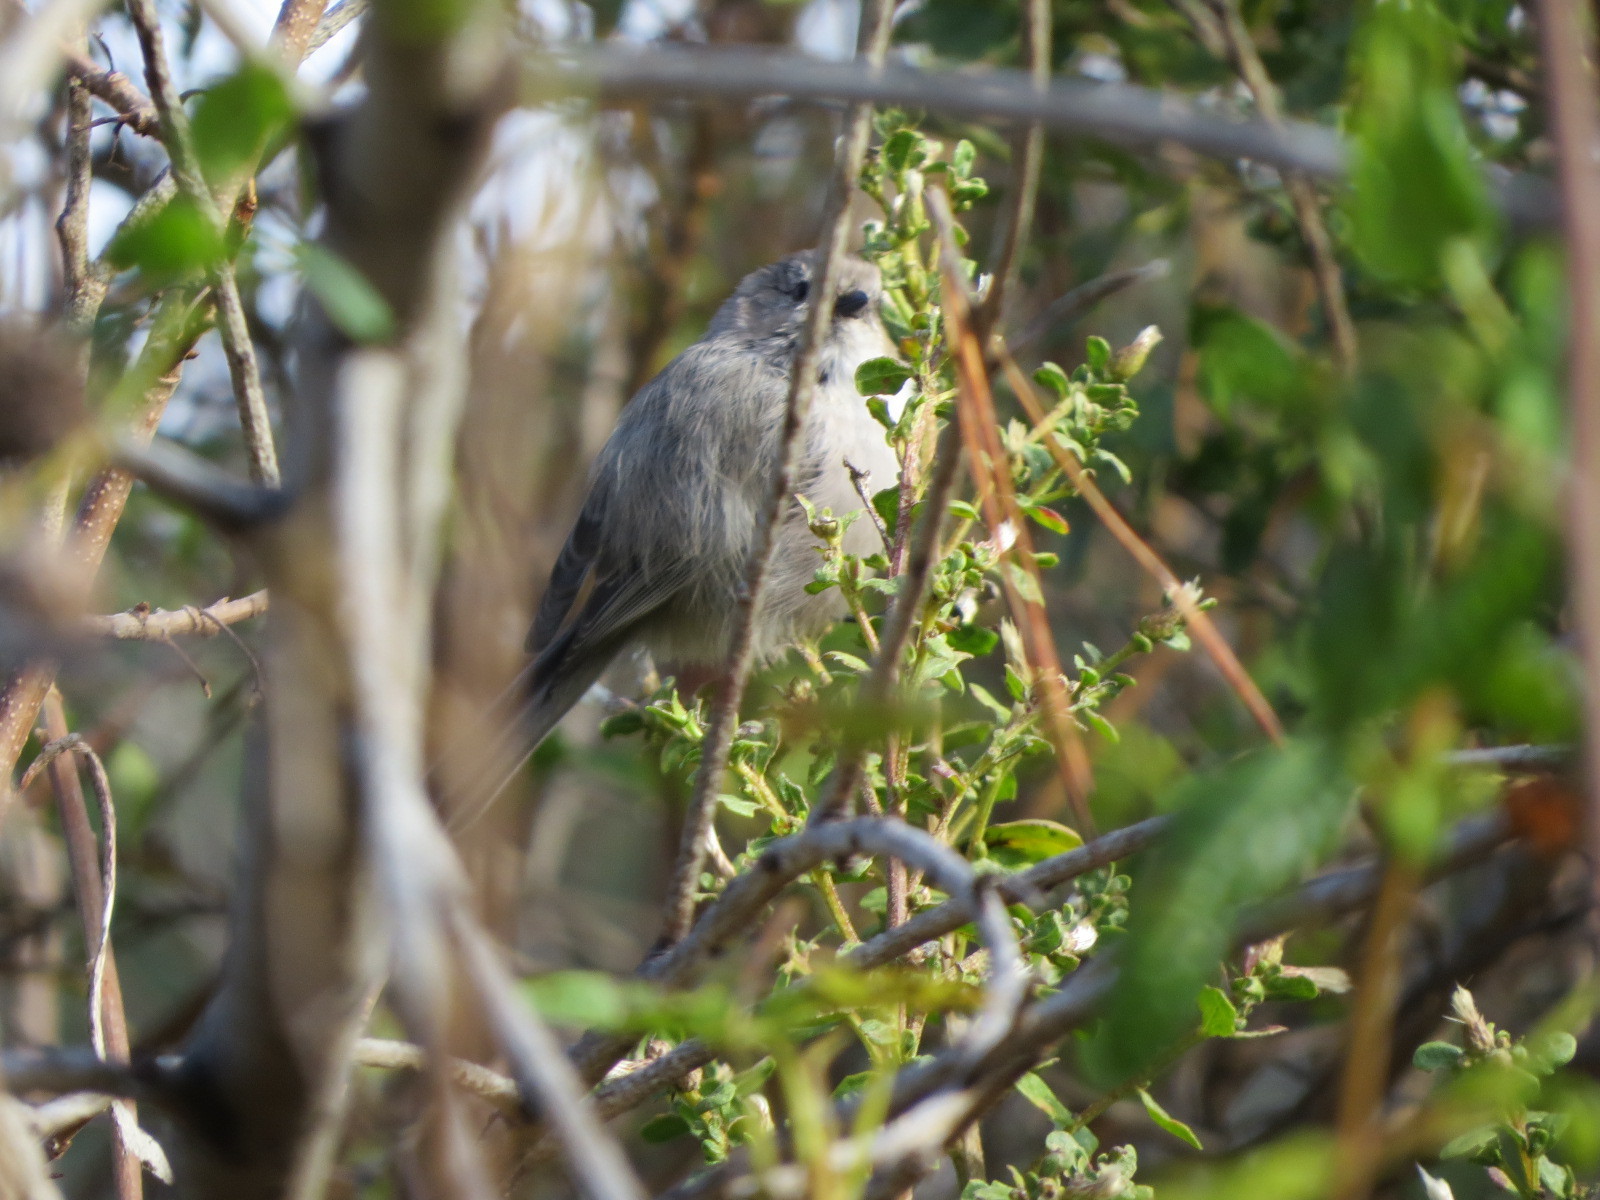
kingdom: Animalia
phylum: Chordata
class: Aves
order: Passeriformes
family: Aegithalidae
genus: Psaltriparus
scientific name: Psaltriparus minimus
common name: American bushtit
